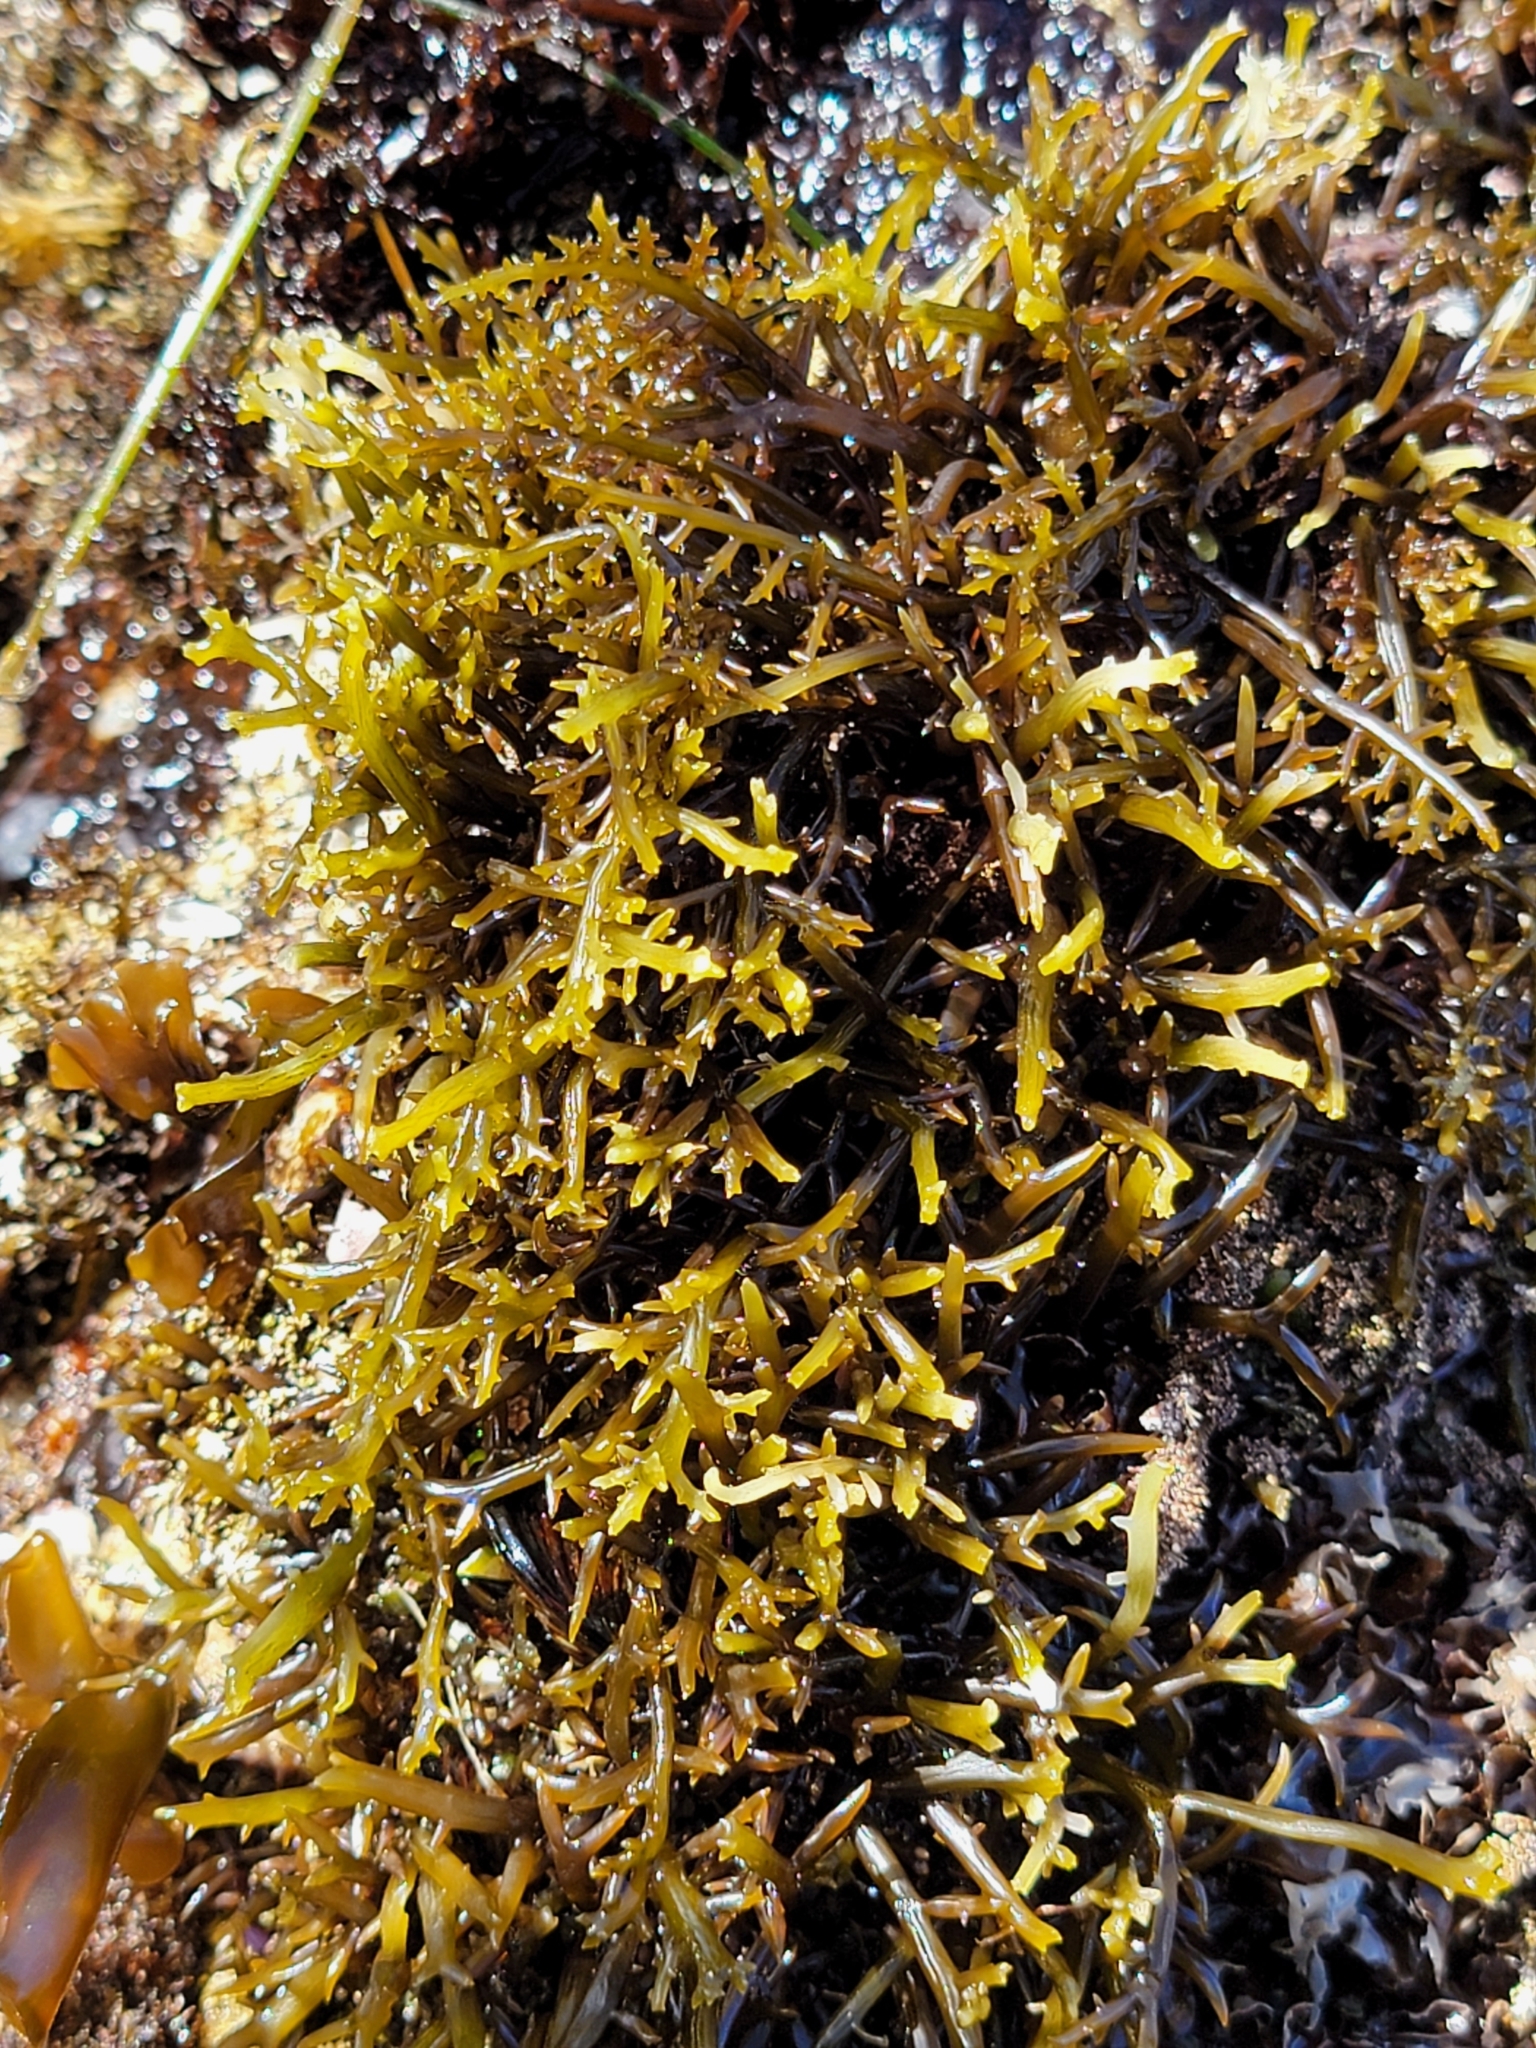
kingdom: Plantae
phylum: Rhodophyta
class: Florideophyceae
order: Gigartinales
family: Gigartinaceae
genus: Chondracanthus
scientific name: Chondracanthus canaliculatus
